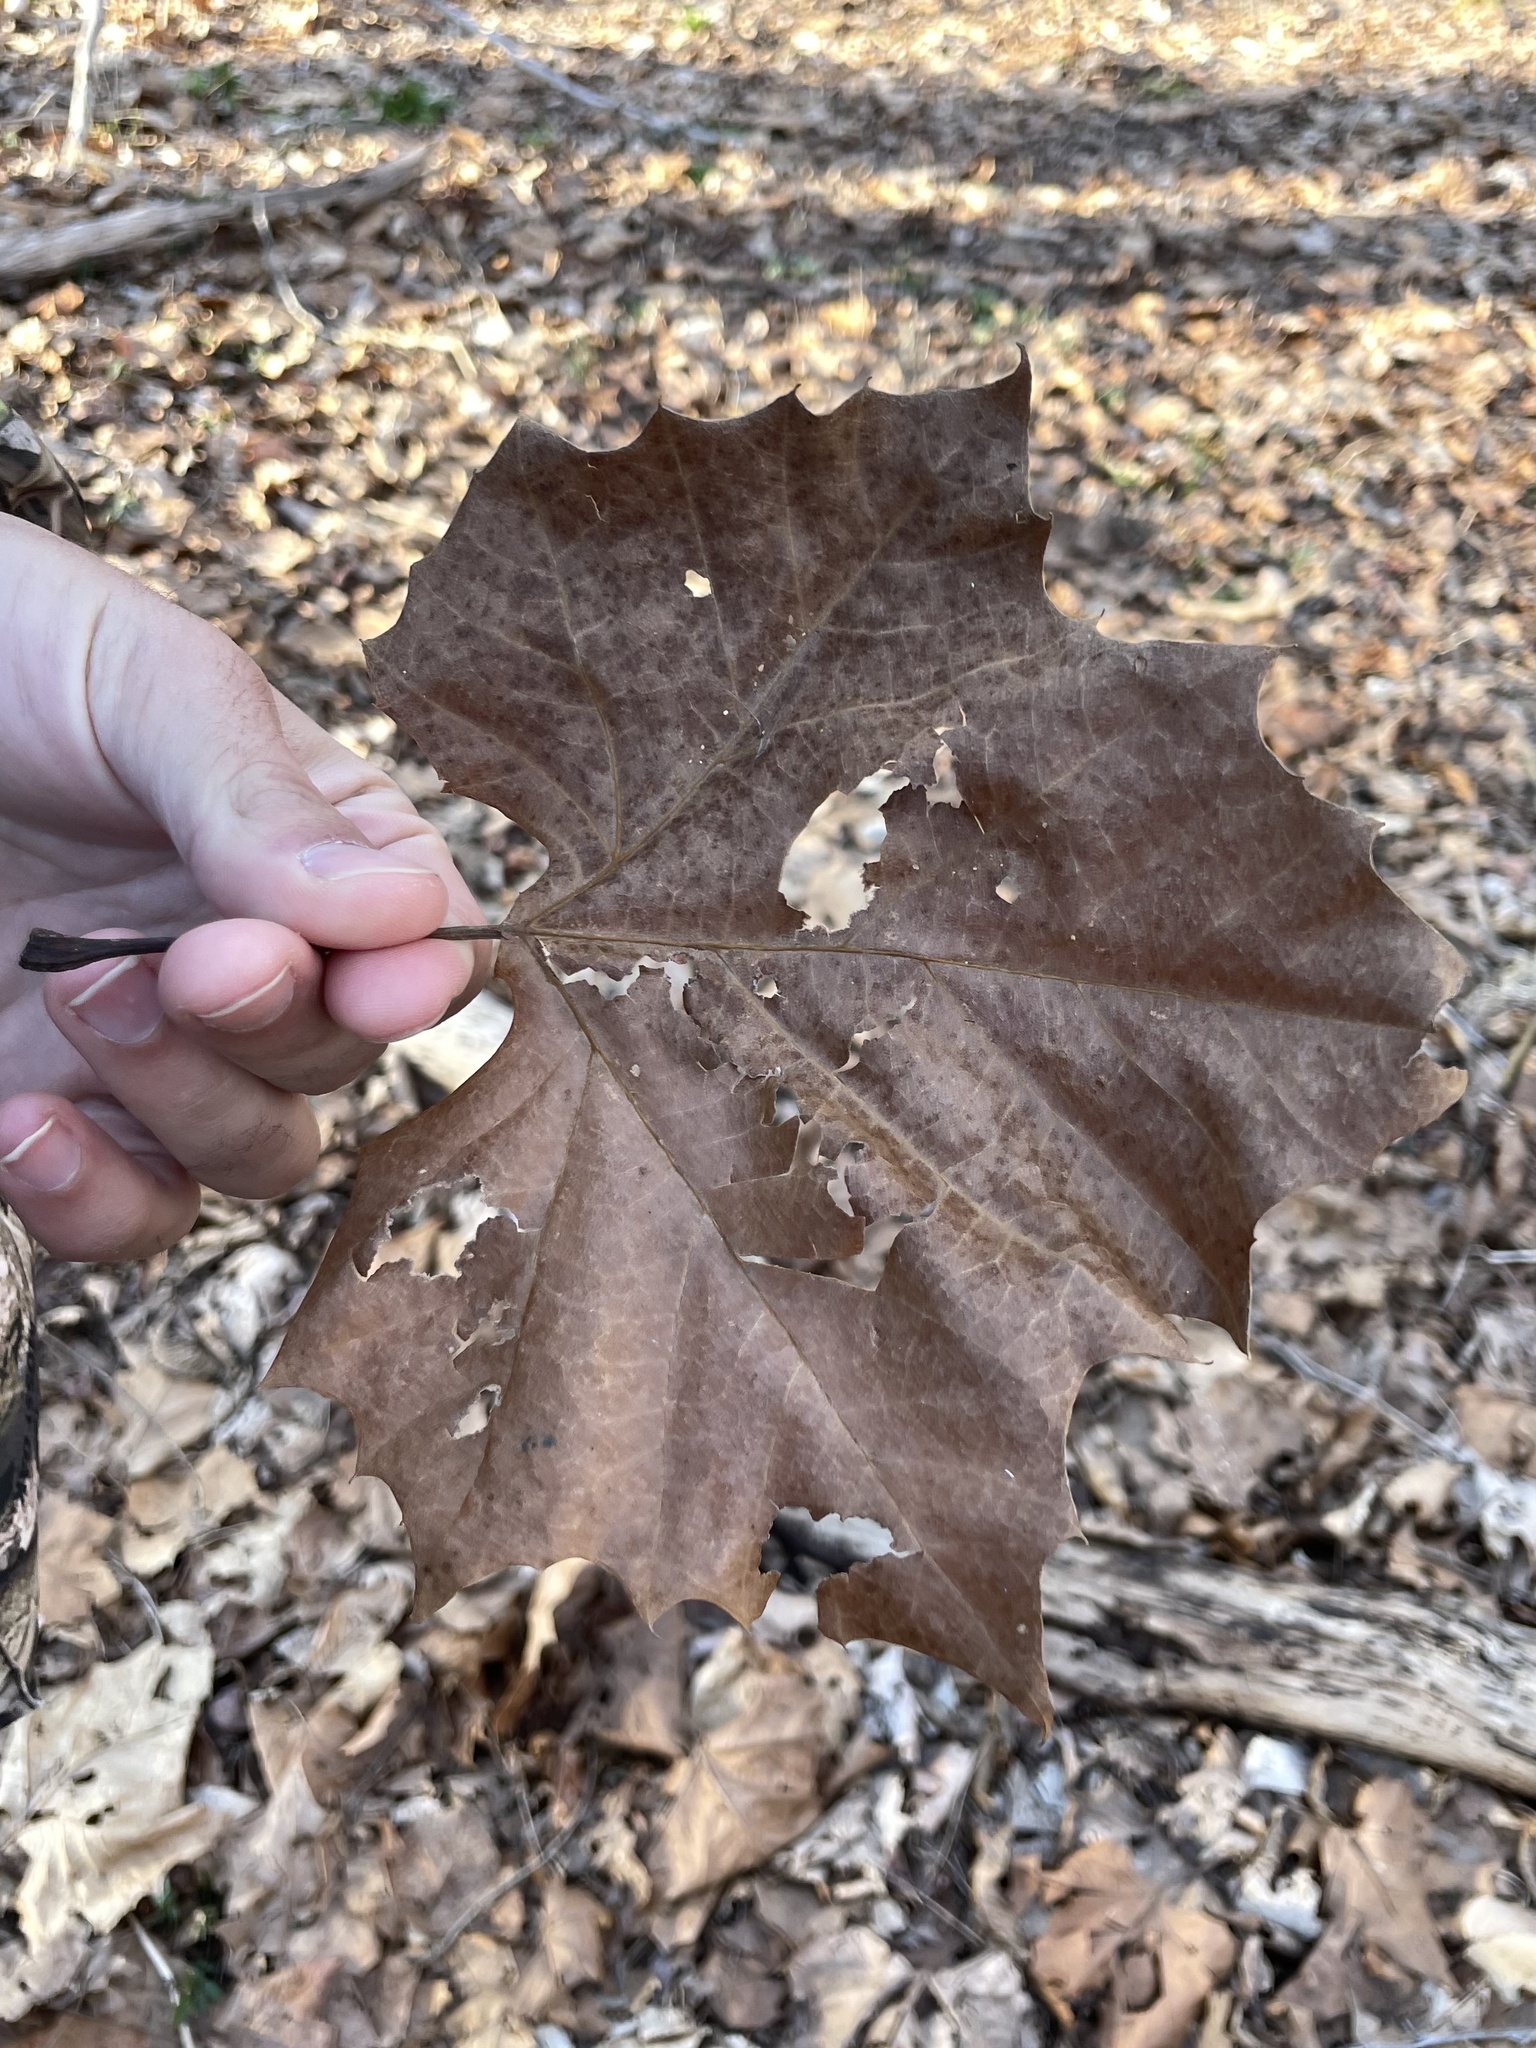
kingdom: Plantae
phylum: Tracheophyta
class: Magnoliopsida
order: Proteales
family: Platanaceae
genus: Platanus
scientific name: Platanus occidentalis
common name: American sycamore
